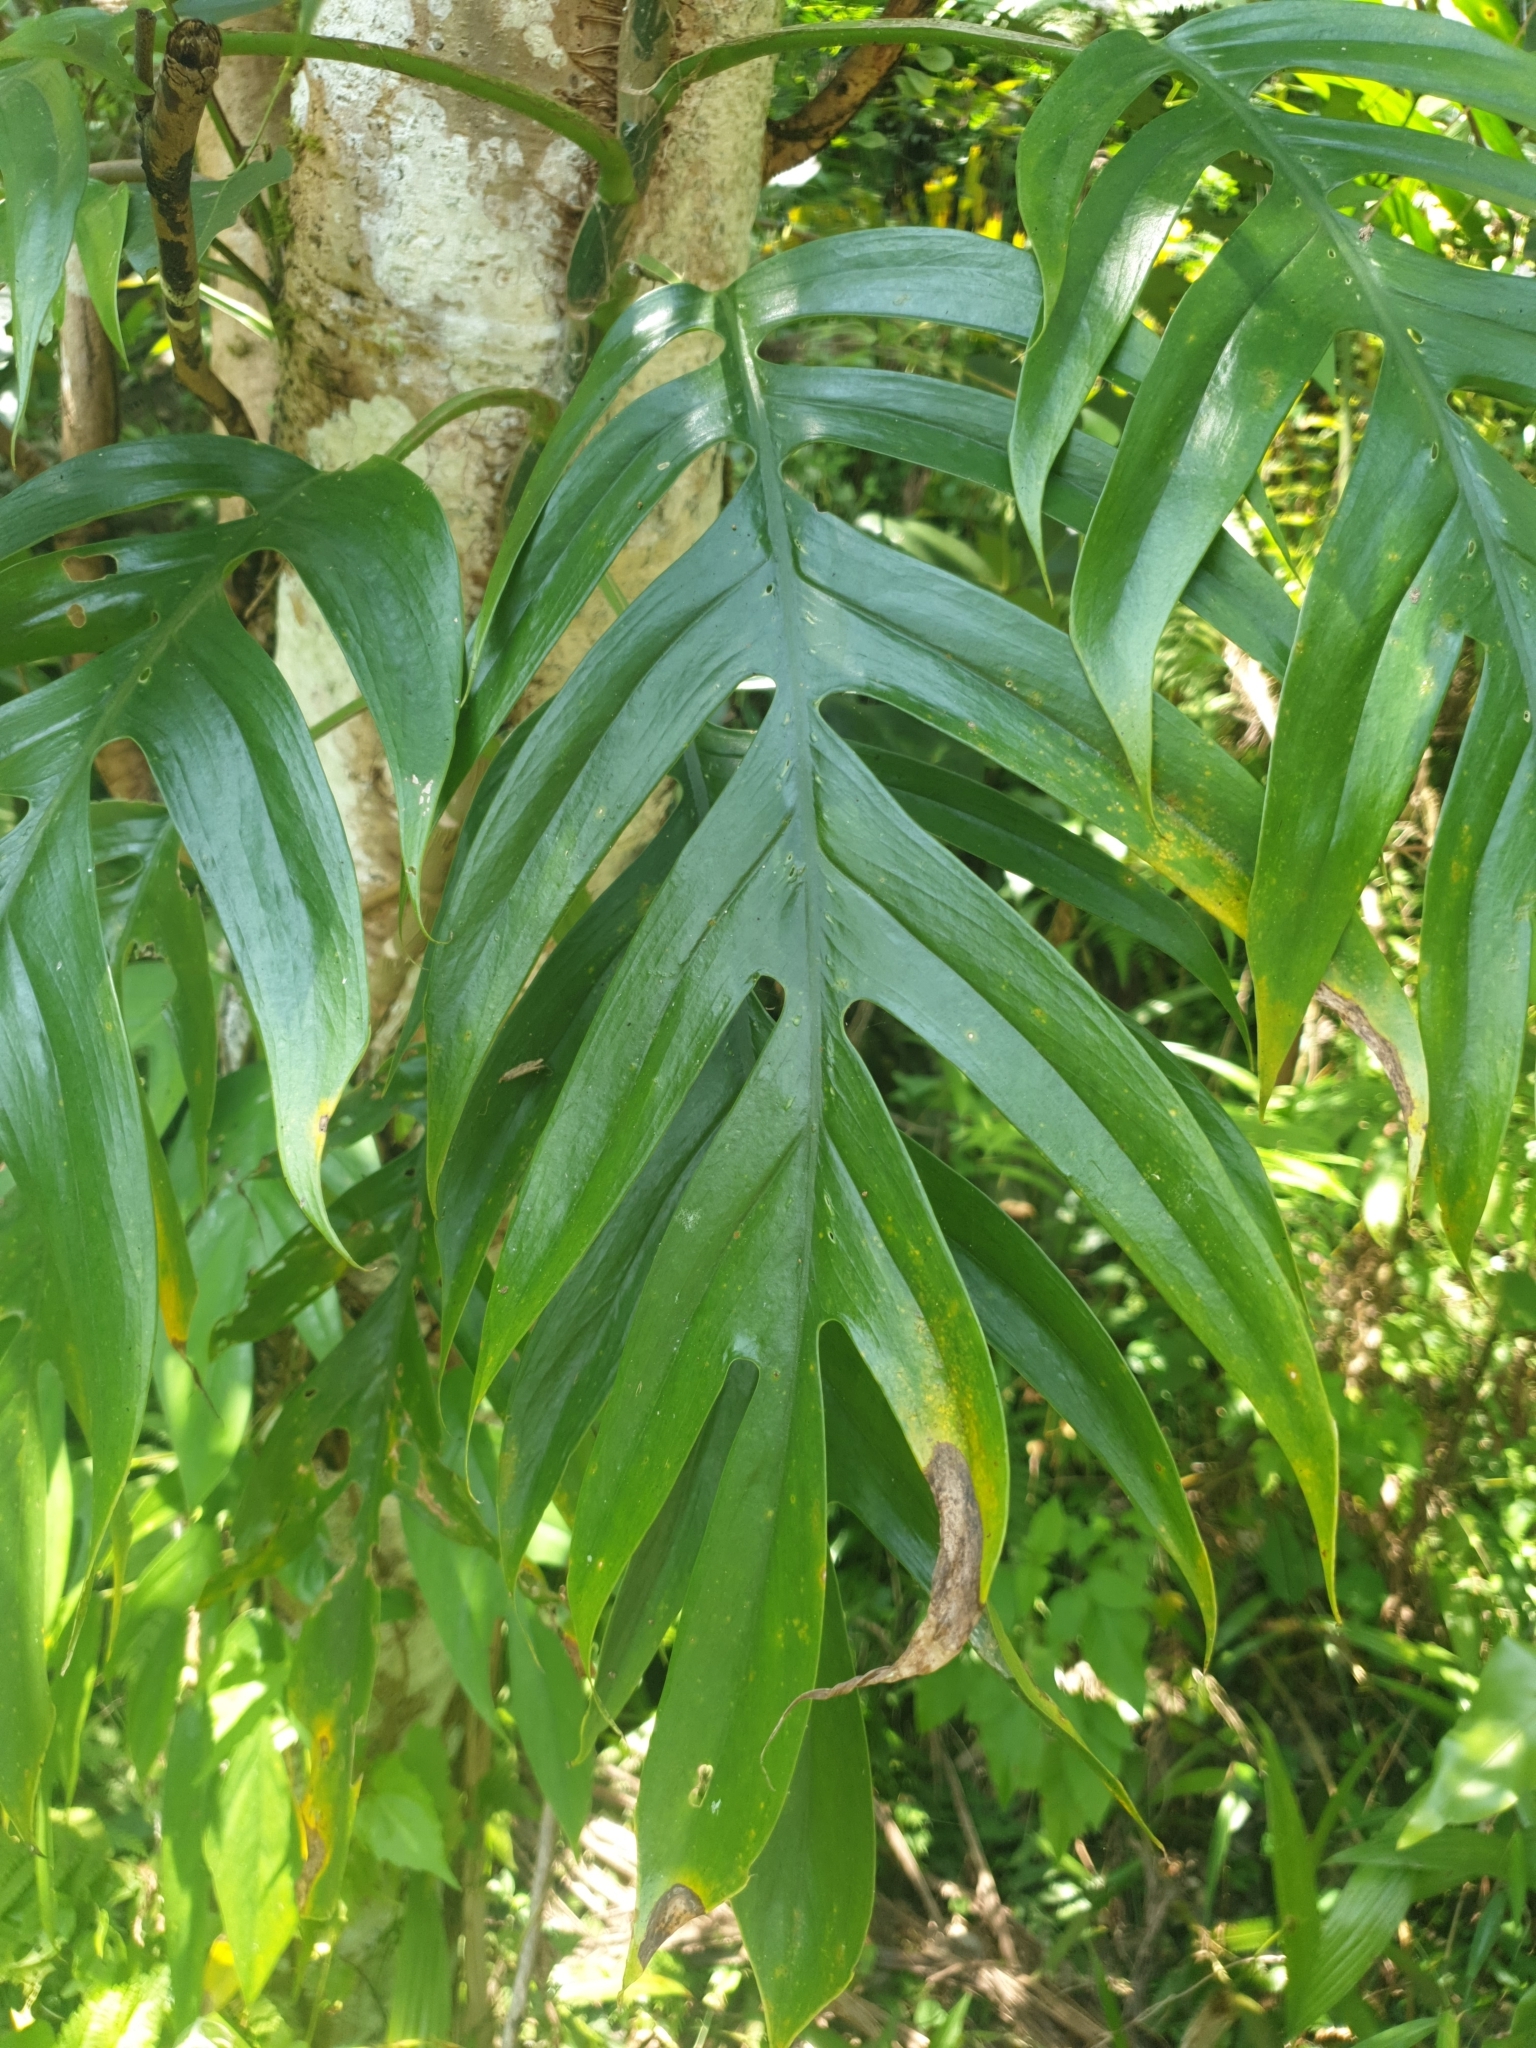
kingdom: Plantae
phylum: Tracheophyta
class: Liliopsida
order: Alismatales
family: Araceae
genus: Epipremnum
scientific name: Epipremnum pinnatum
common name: Centipede tongavine
